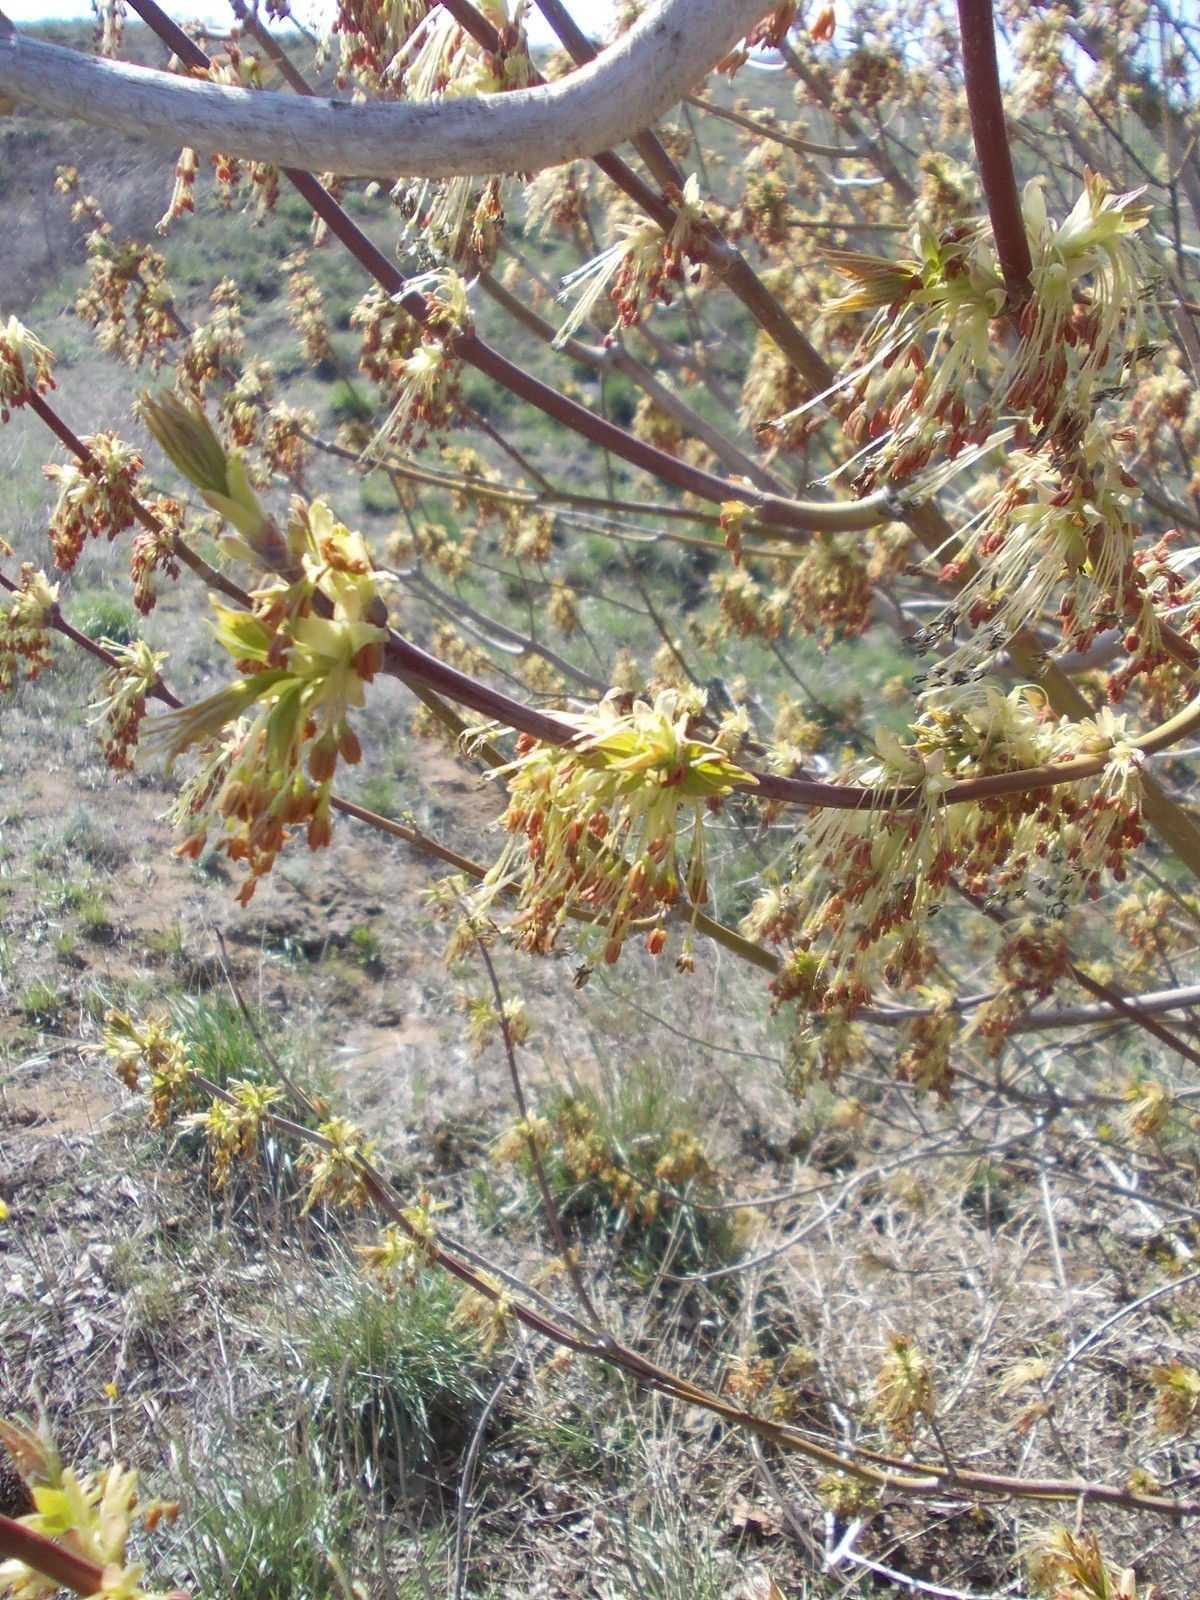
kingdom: Plantae
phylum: Tracheophyta
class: Magnoliopsida
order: Sapindales
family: Sapindaceae
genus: Acer
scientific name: Acer negundo
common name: Ashleaf maple
